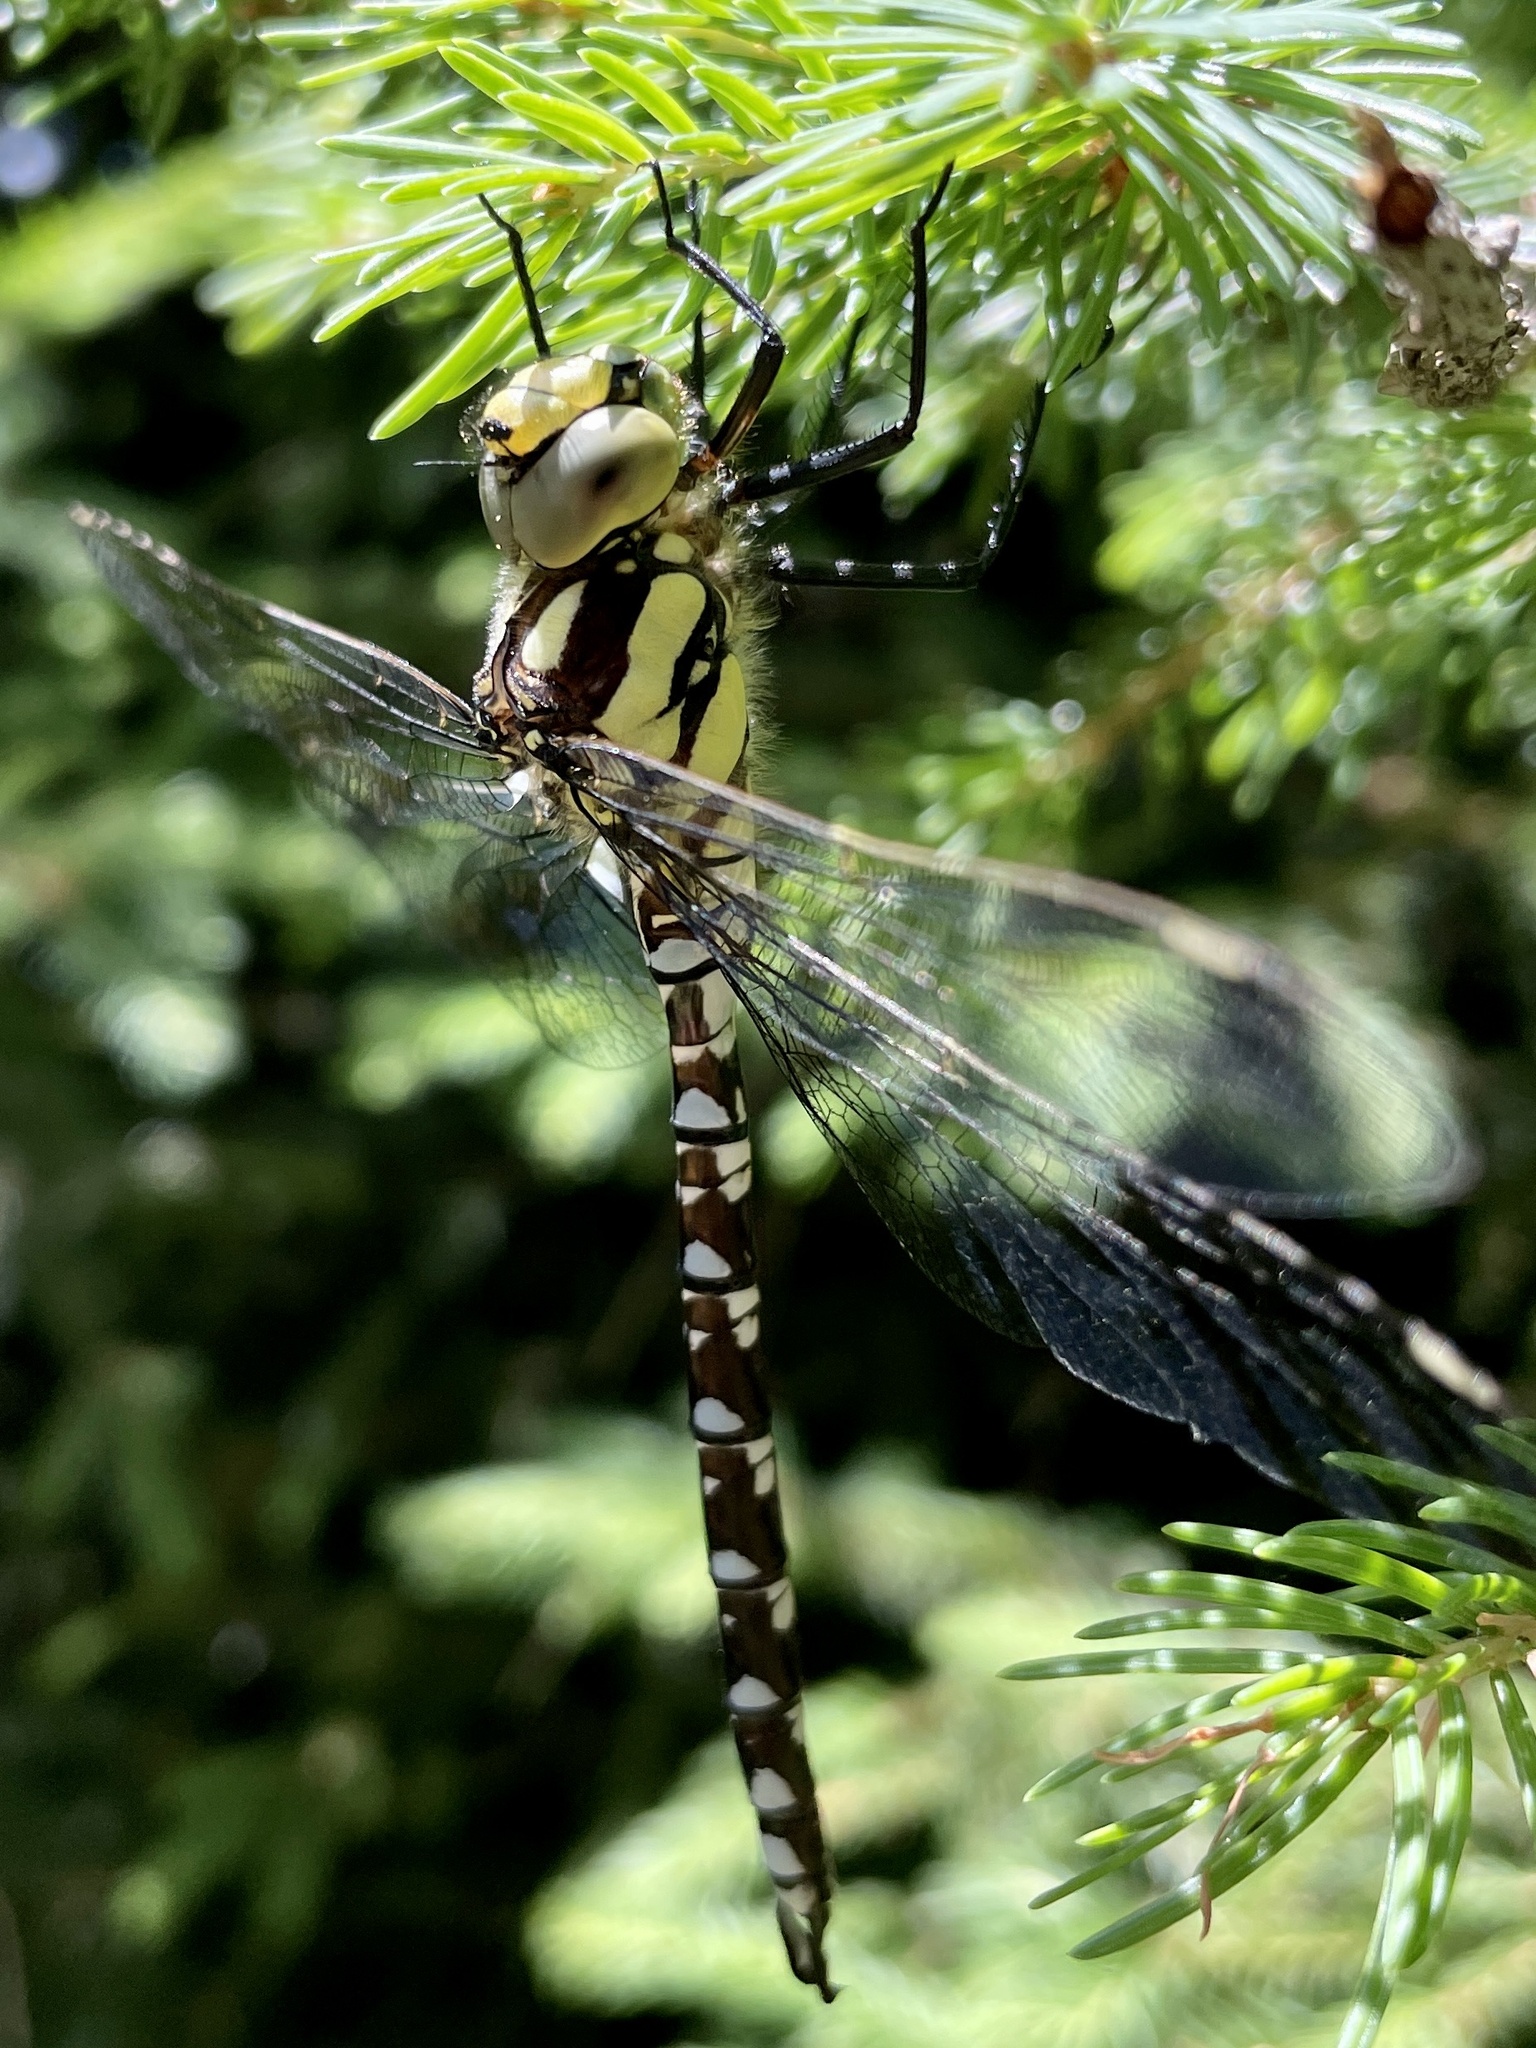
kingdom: Animalia
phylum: Arthropoda
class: Insecta
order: Odonata
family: Aeshnidae
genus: Aeshna
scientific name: Aeshna cyanea
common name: Southern hawker
